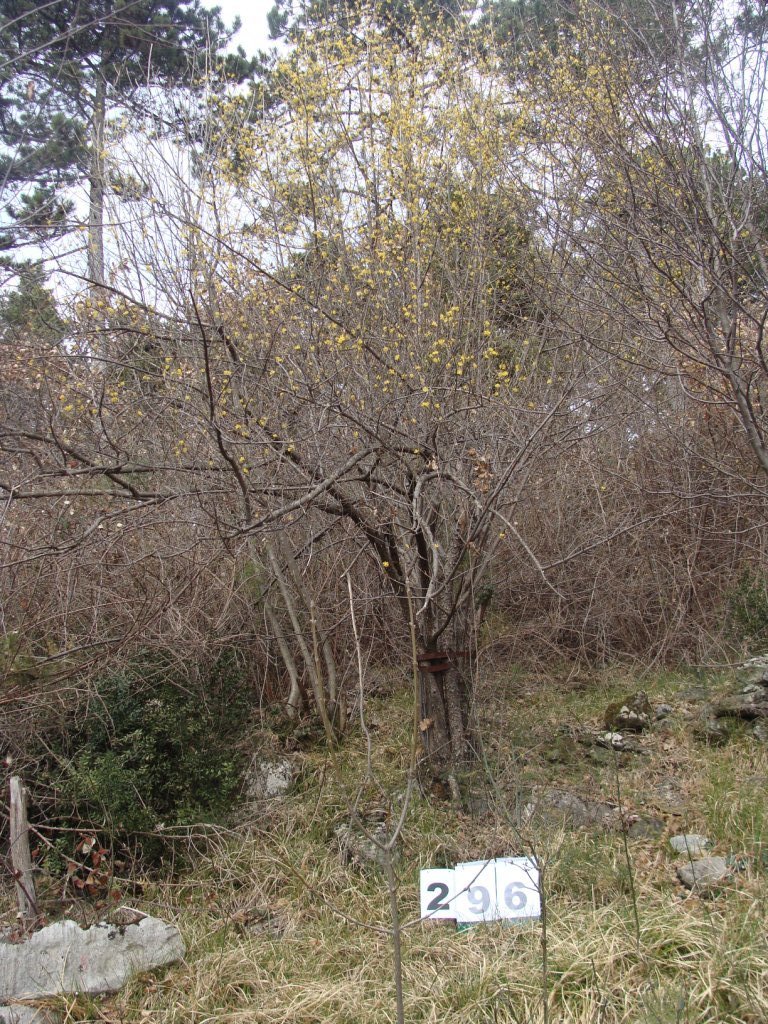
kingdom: Plantae
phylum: Tracheophyta
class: Magnoliopsida
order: Cornales
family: Cornaceae
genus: Cornus
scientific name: Cornus mas
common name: Cornelian-cherry
